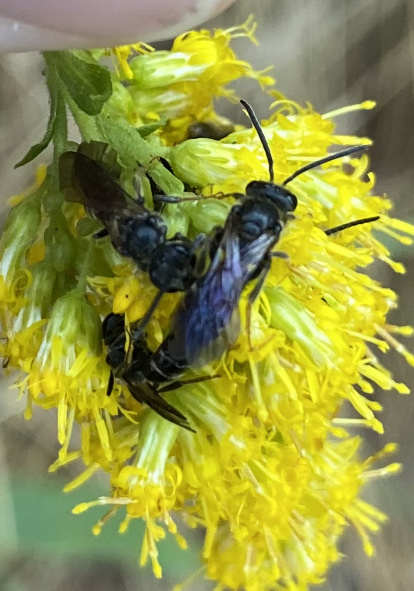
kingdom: Animalia
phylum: Arthropoda
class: Insecta
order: Hymenoptera
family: Halictidae
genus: Lasioglossum
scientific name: Lasioglossum fuscipenne
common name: Brown-winged sweat bee
